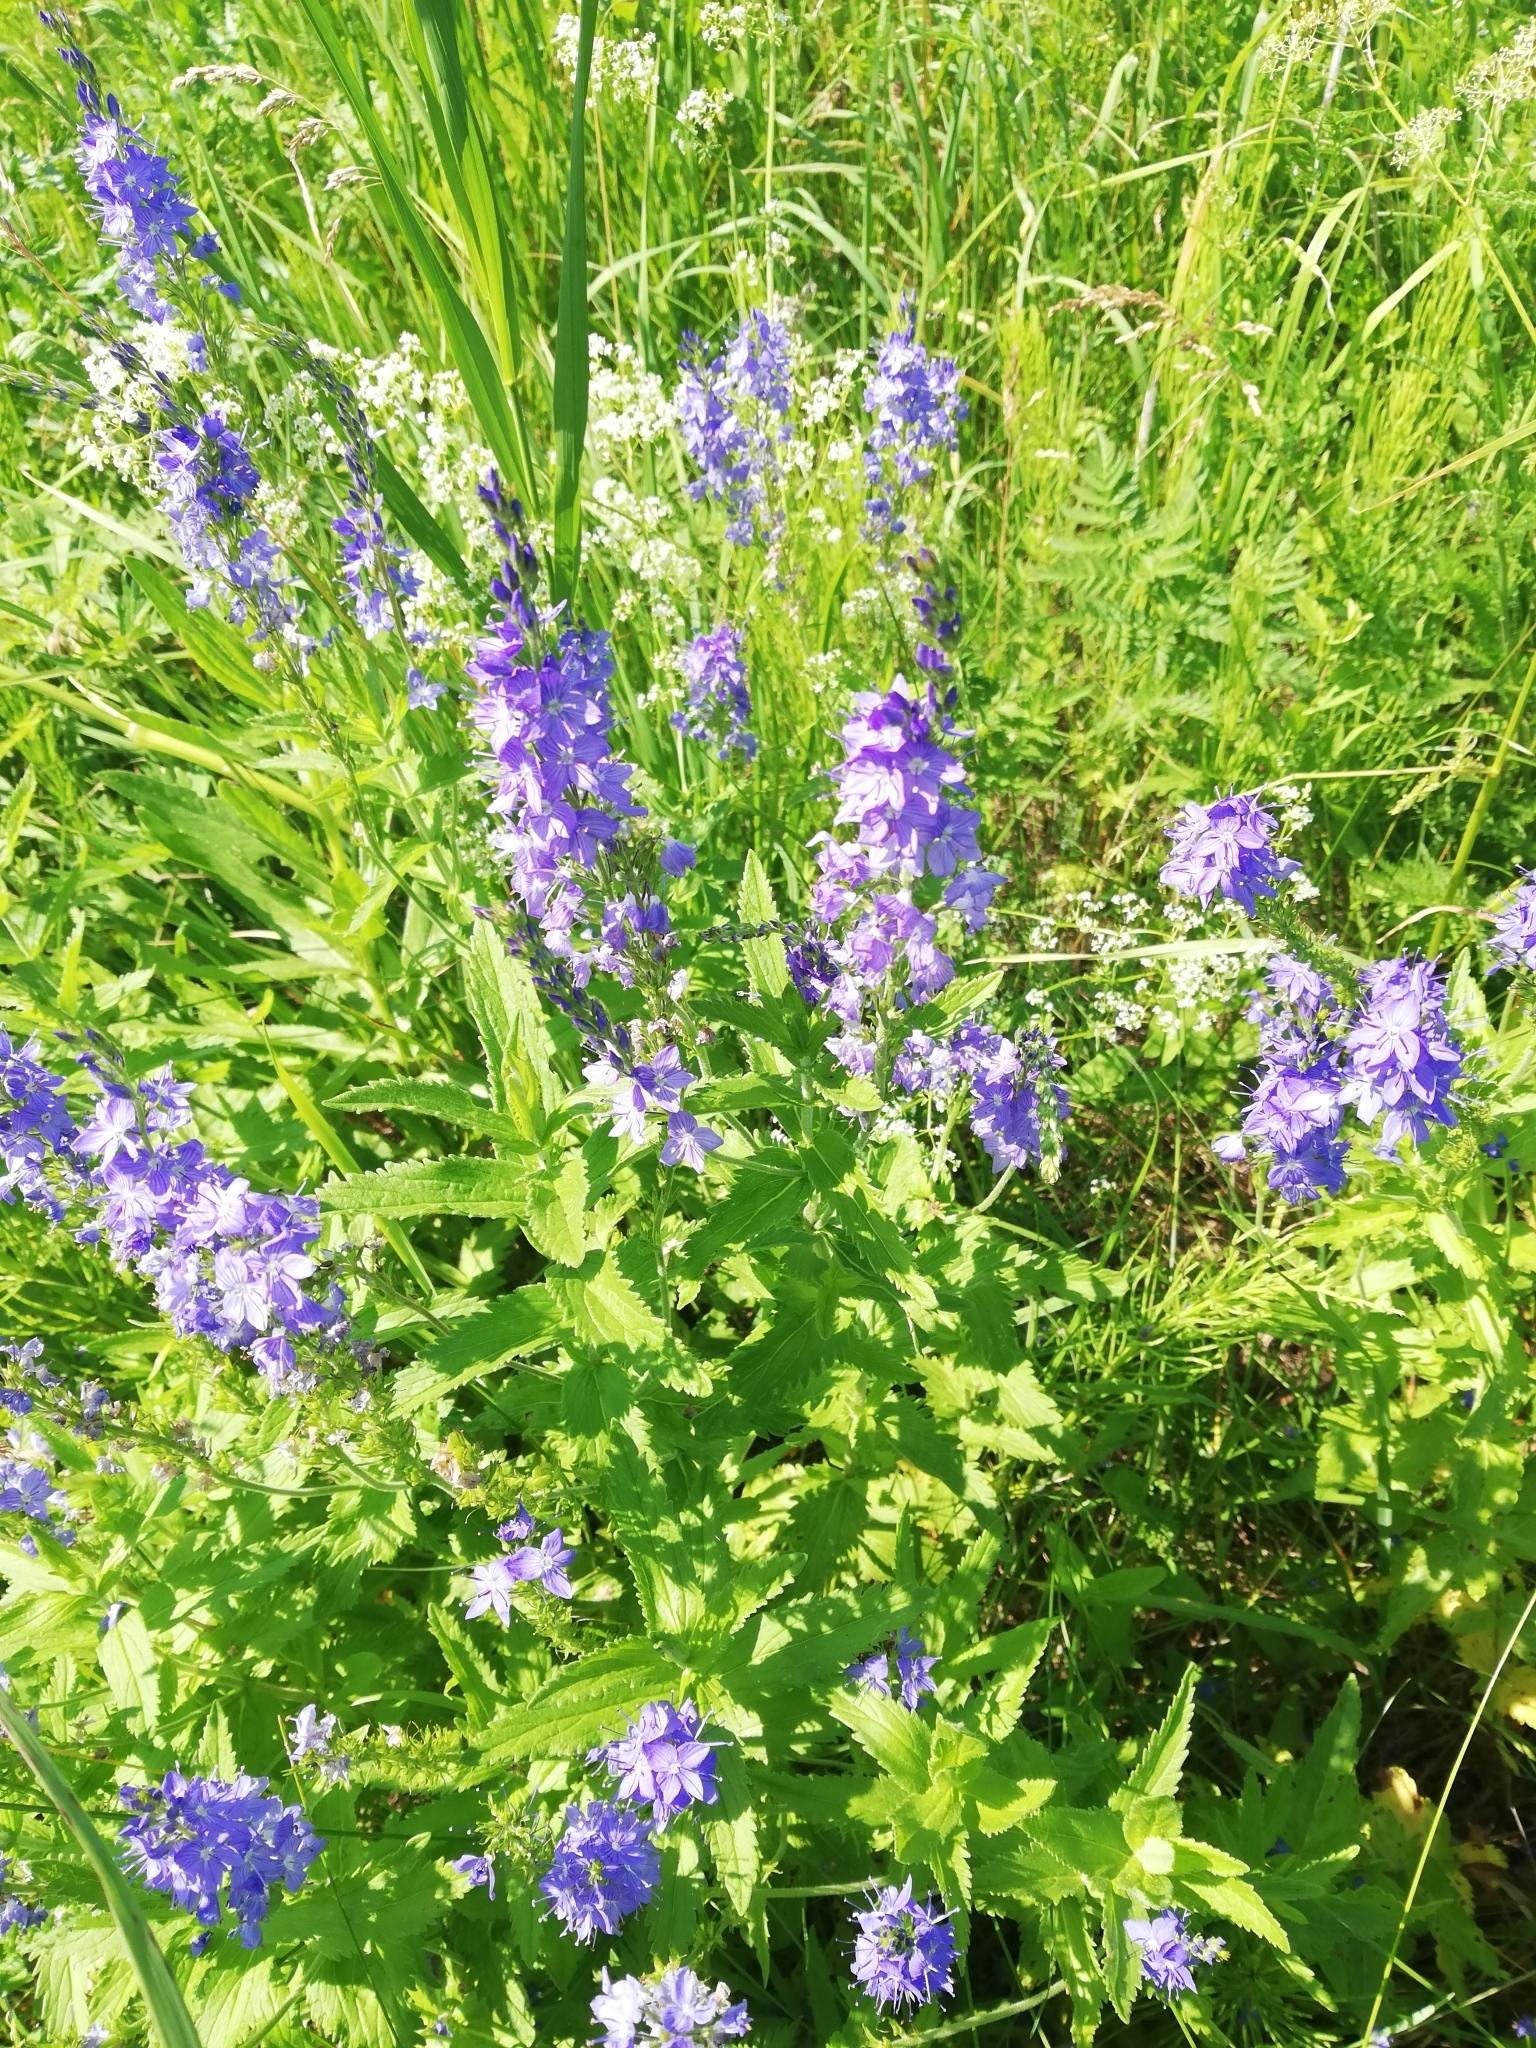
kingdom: Plantae
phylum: Tracheophyta
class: Magnoliopsida
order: Lamiales
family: Plantaginaceae
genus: Veronica
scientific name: Veronica teucrium
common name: Large speedwell
